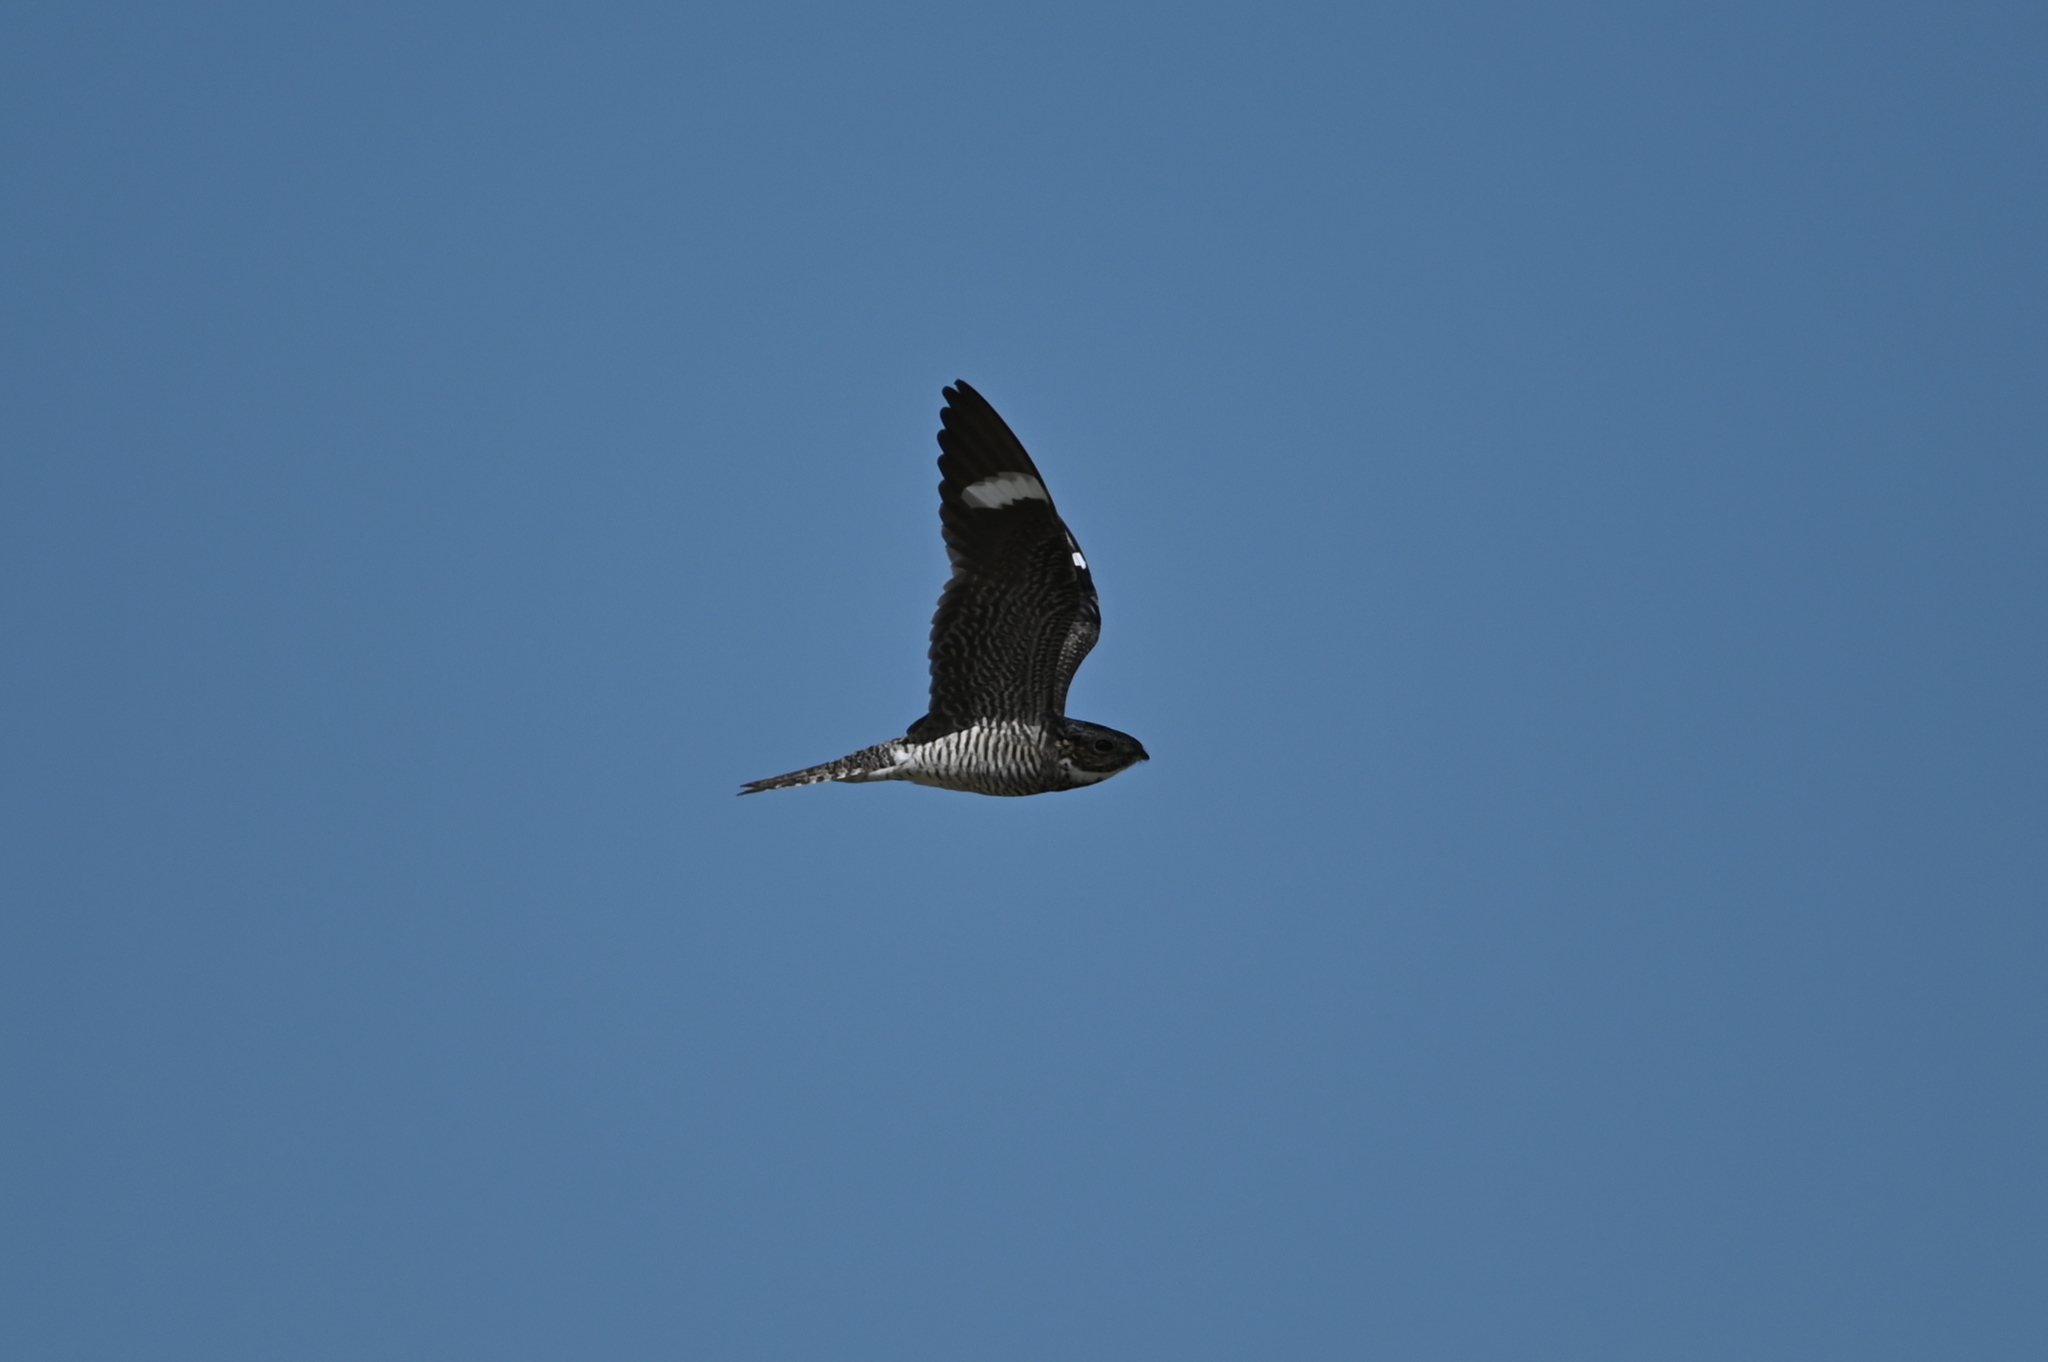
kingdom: Animalia
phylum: Chordata
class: Aves
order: Caprimulgiformes
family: Caprimulgidae
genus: Chordeiles
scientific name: Chordeiles minor
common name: Common nighthawk
